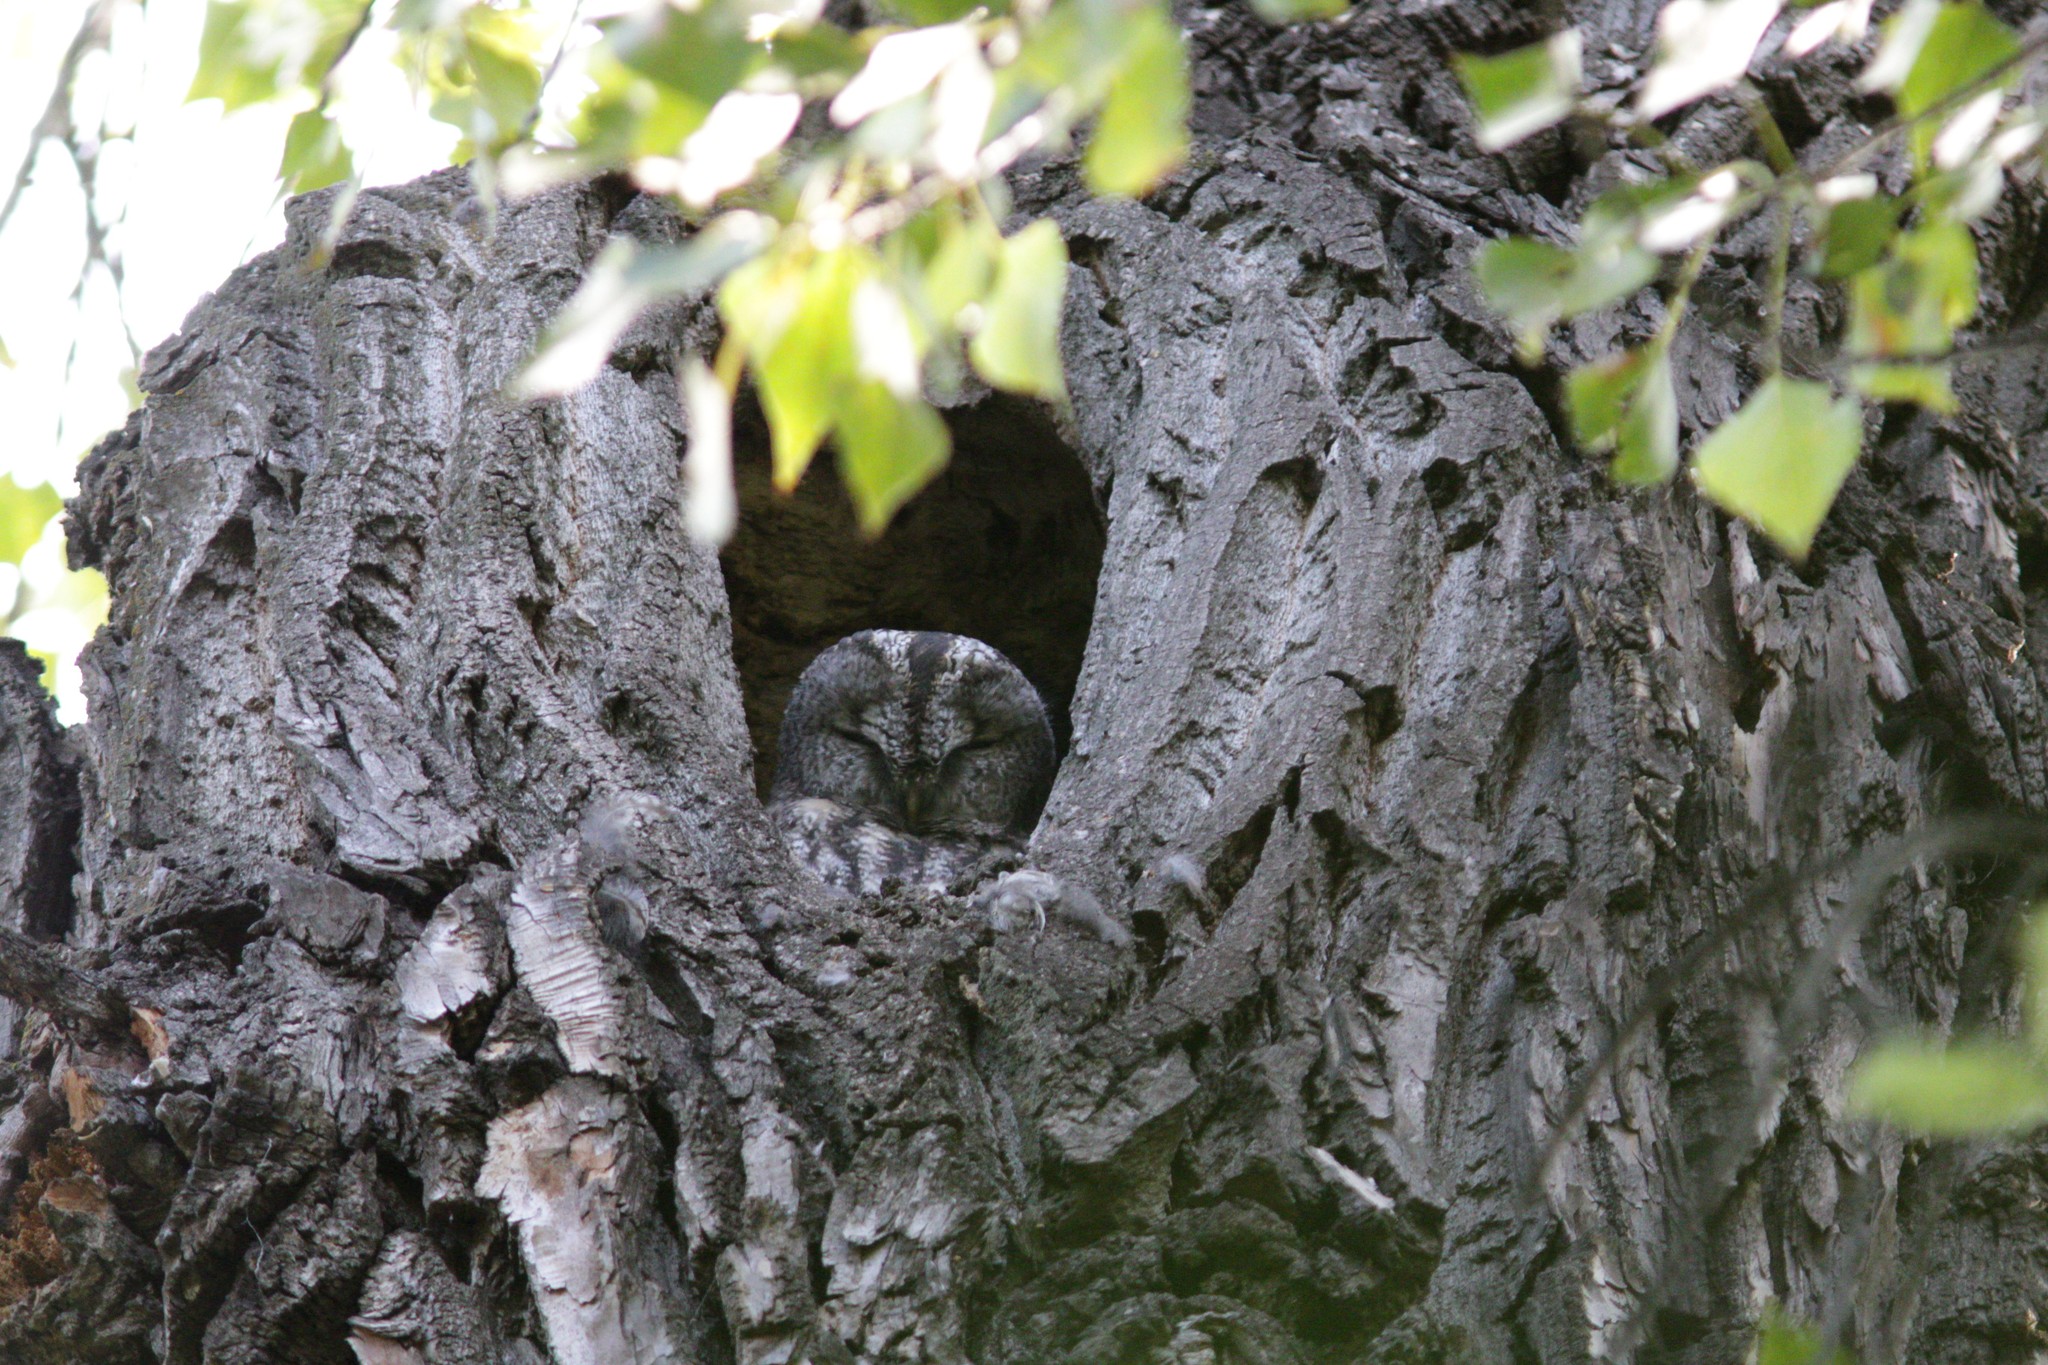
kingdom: Animalia
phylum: Chordata
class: Aves
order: Strigiformes
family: Strigidae
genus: Strix
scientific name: Strix aluco
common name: Tawny owl
